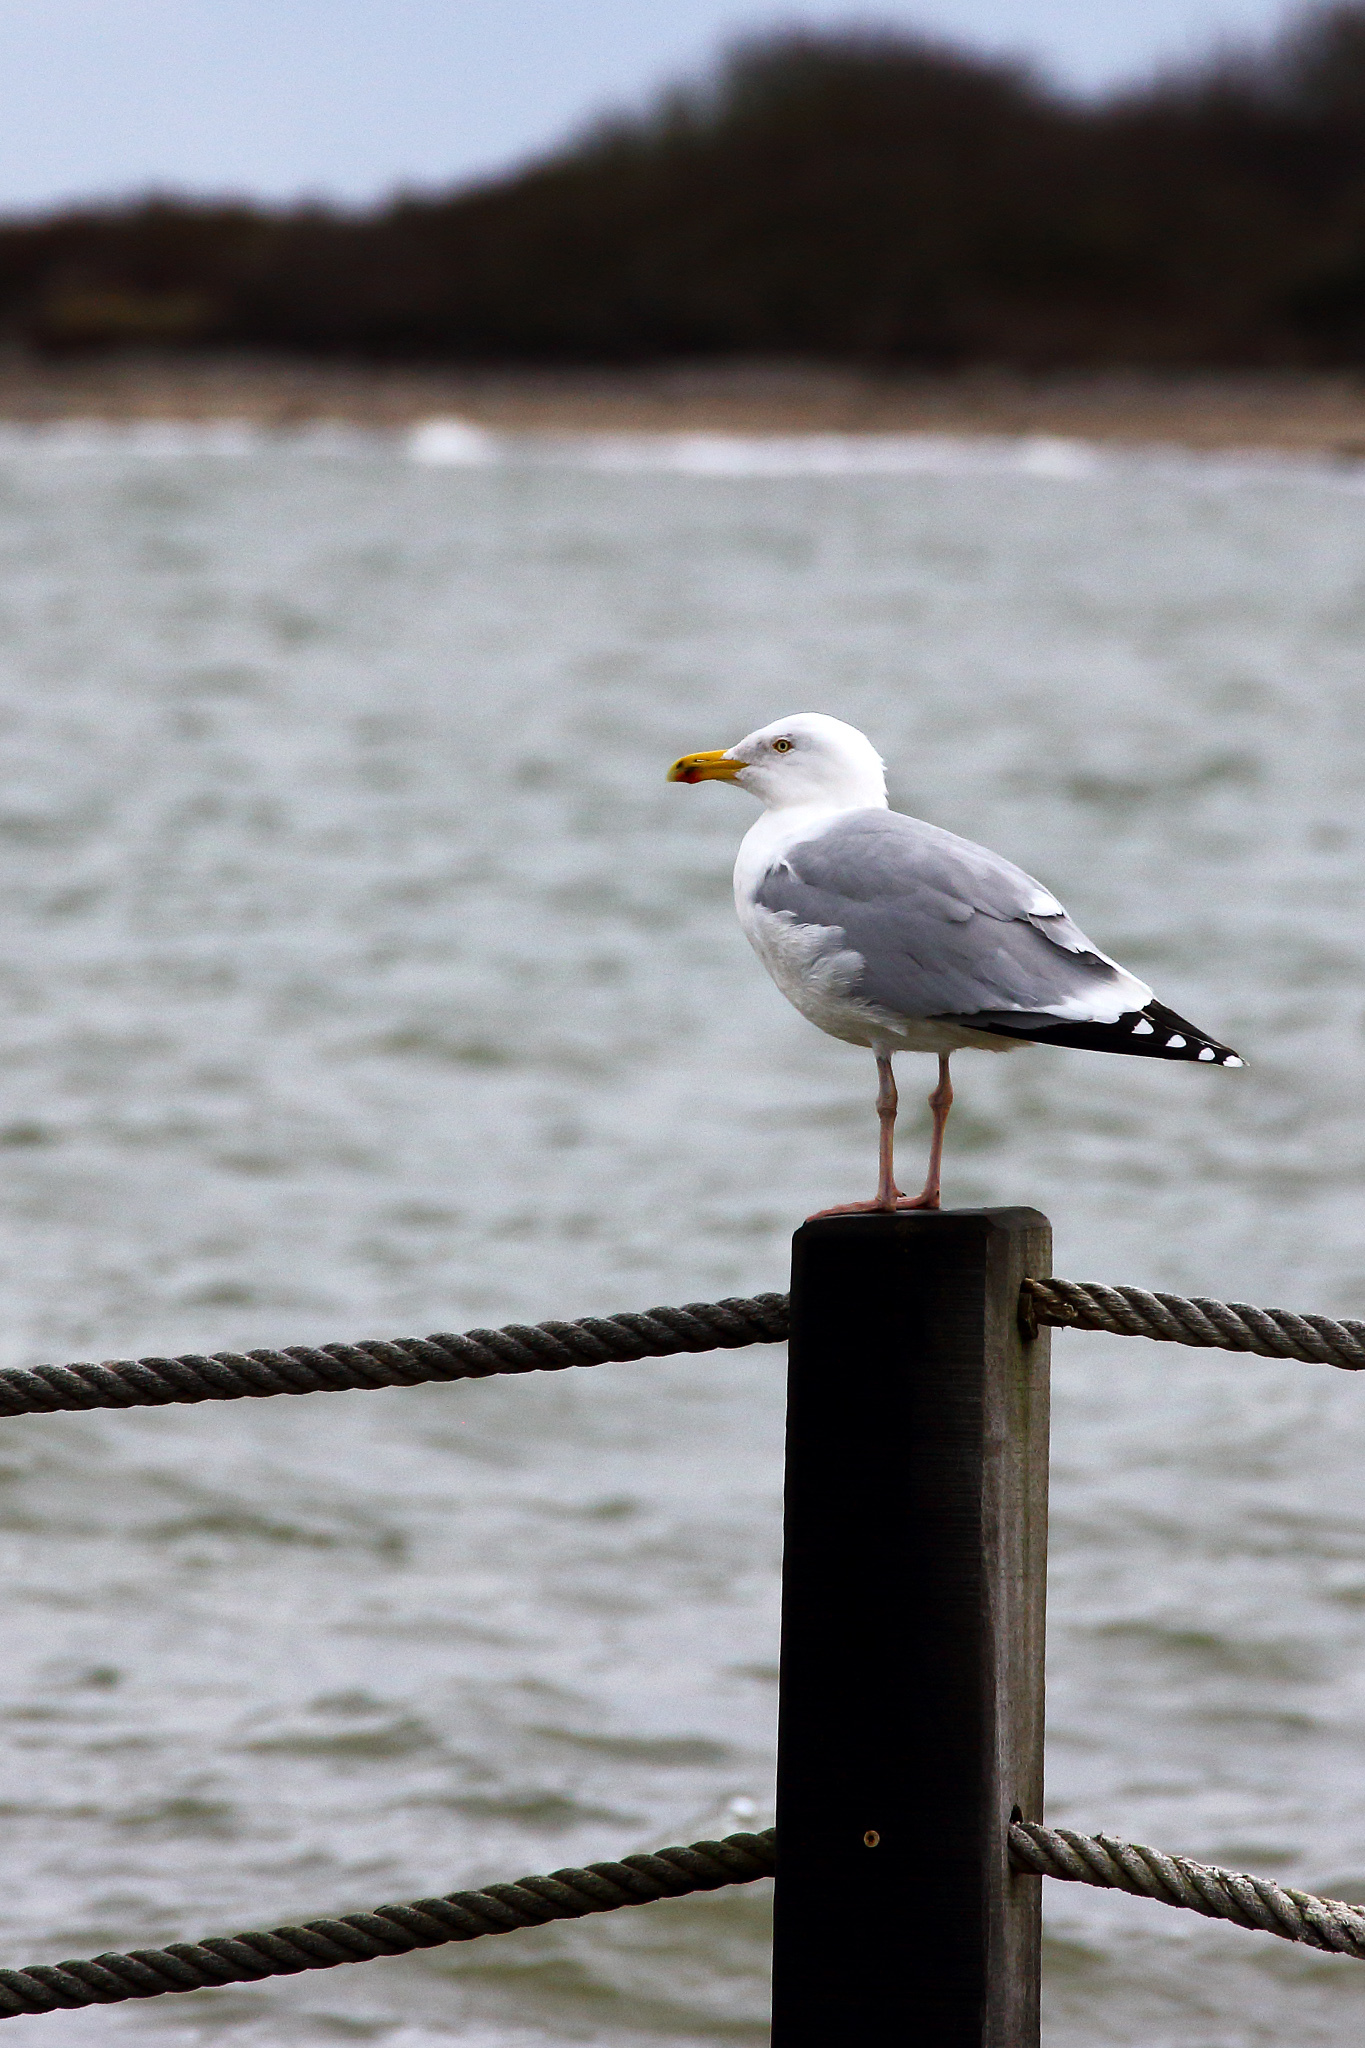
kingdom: Animalia
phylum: Chordata
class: Aves
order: Charadriiformes
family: Laridae
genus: Larus
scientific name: Larus argentatus
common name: Herring gull
